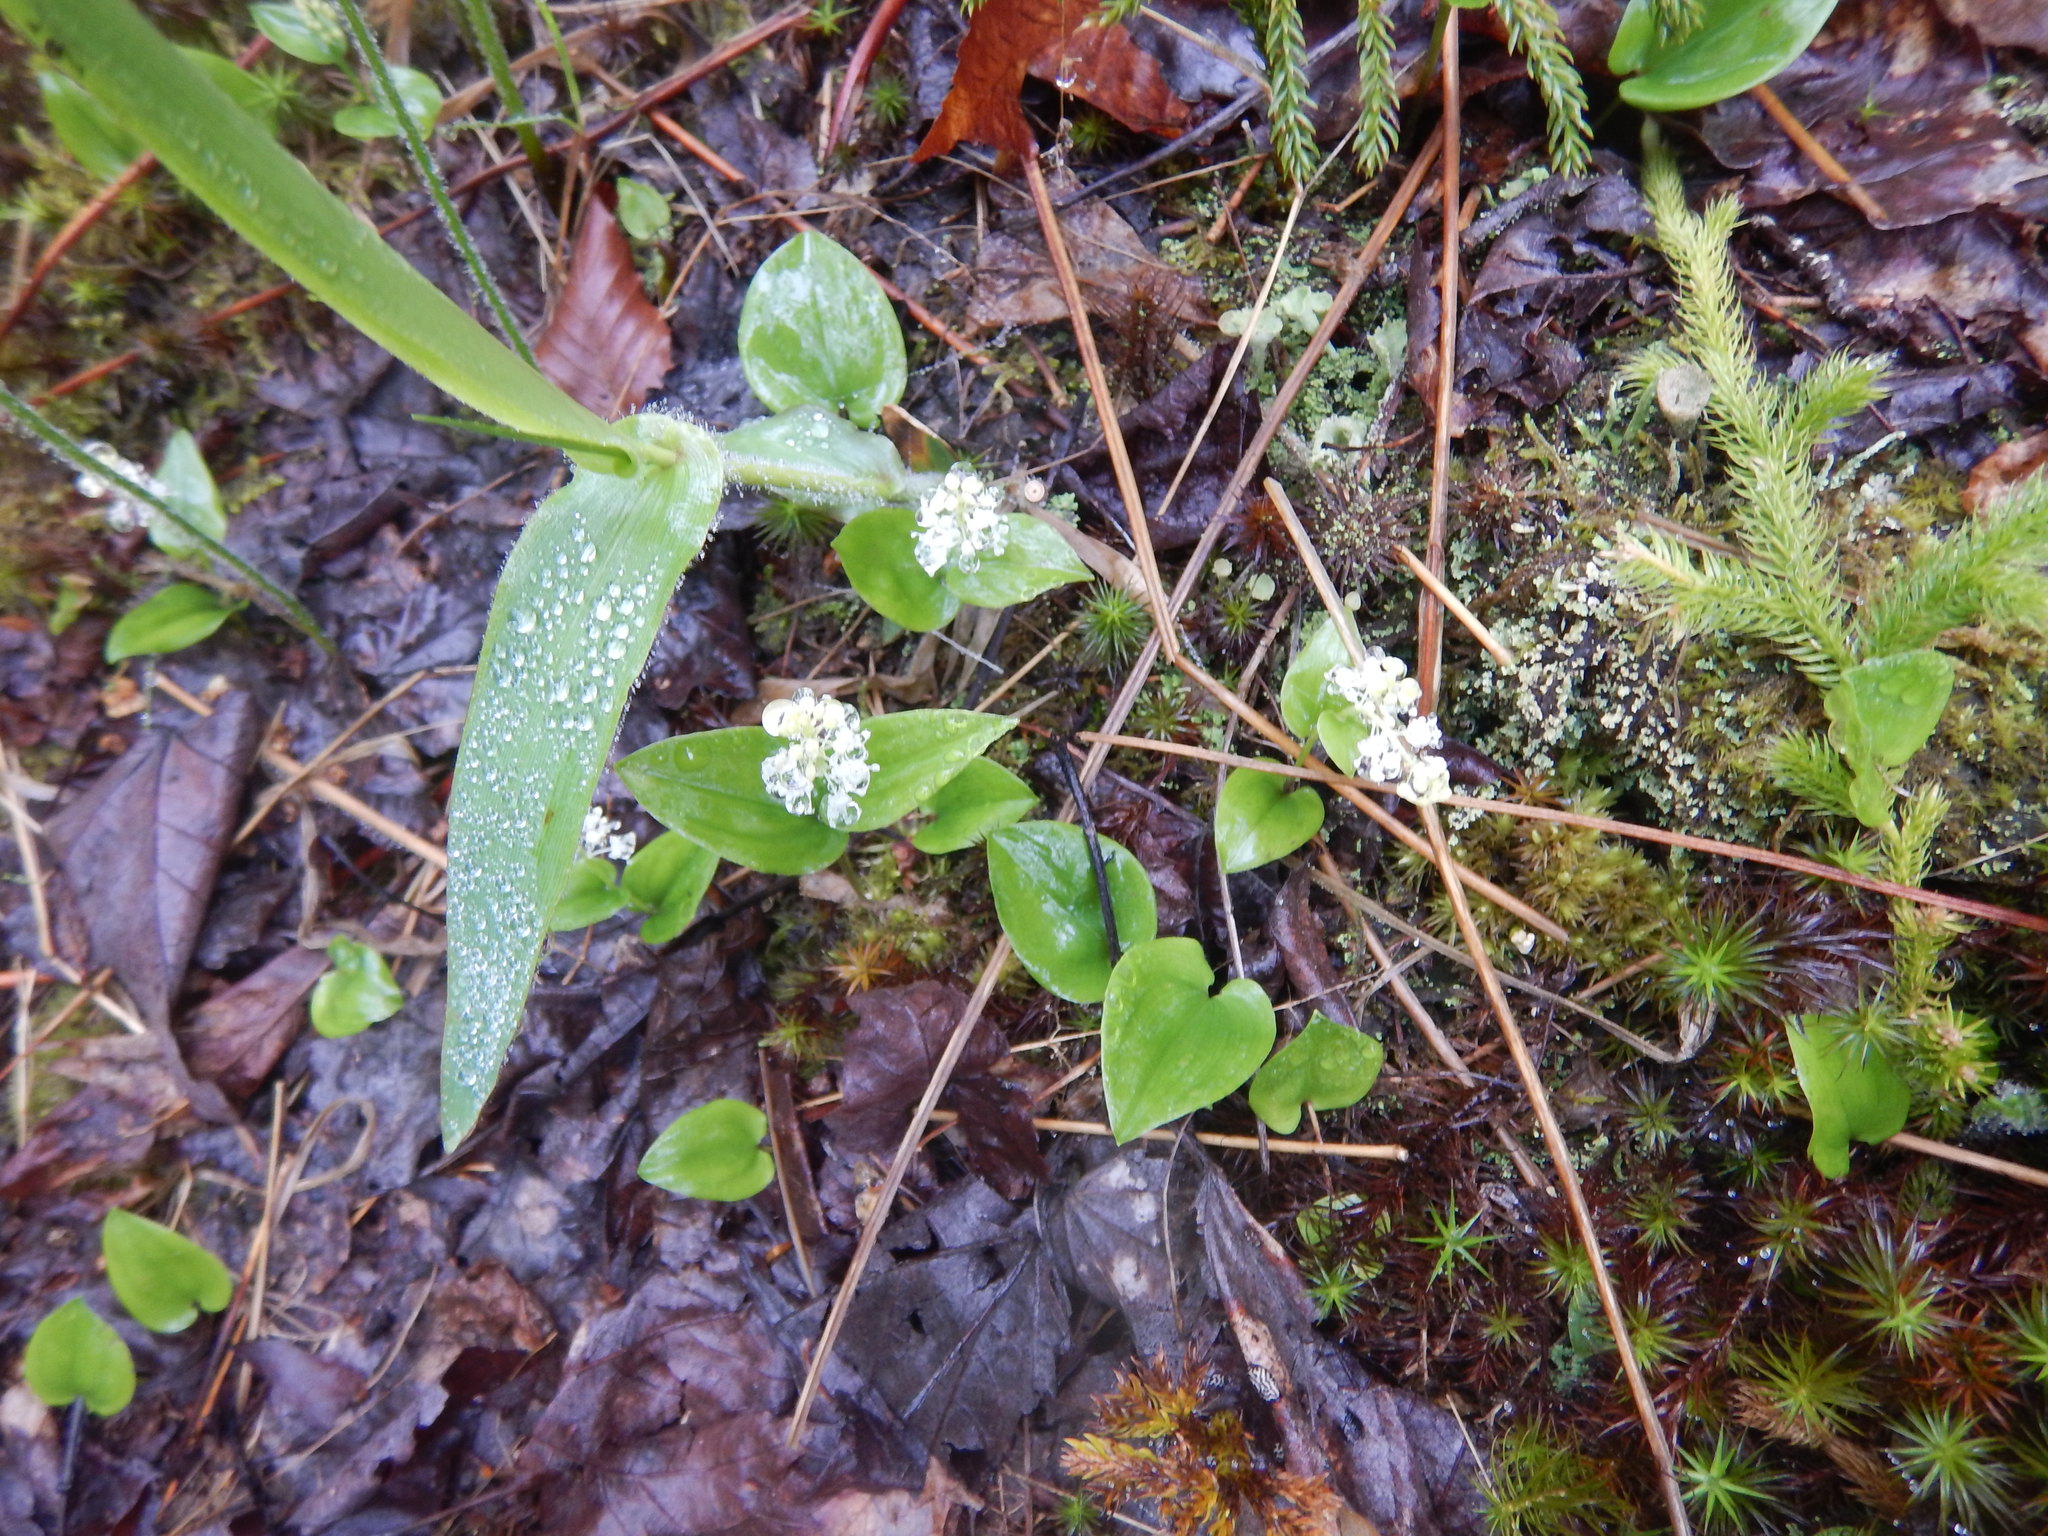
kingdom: Plantae
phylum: Tracheophyta
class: Liliopsida
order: Asparagales
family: Asparagaceae
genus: Maianthemum
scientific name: Maianthemum canadense
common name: False lily-of-the-valley
